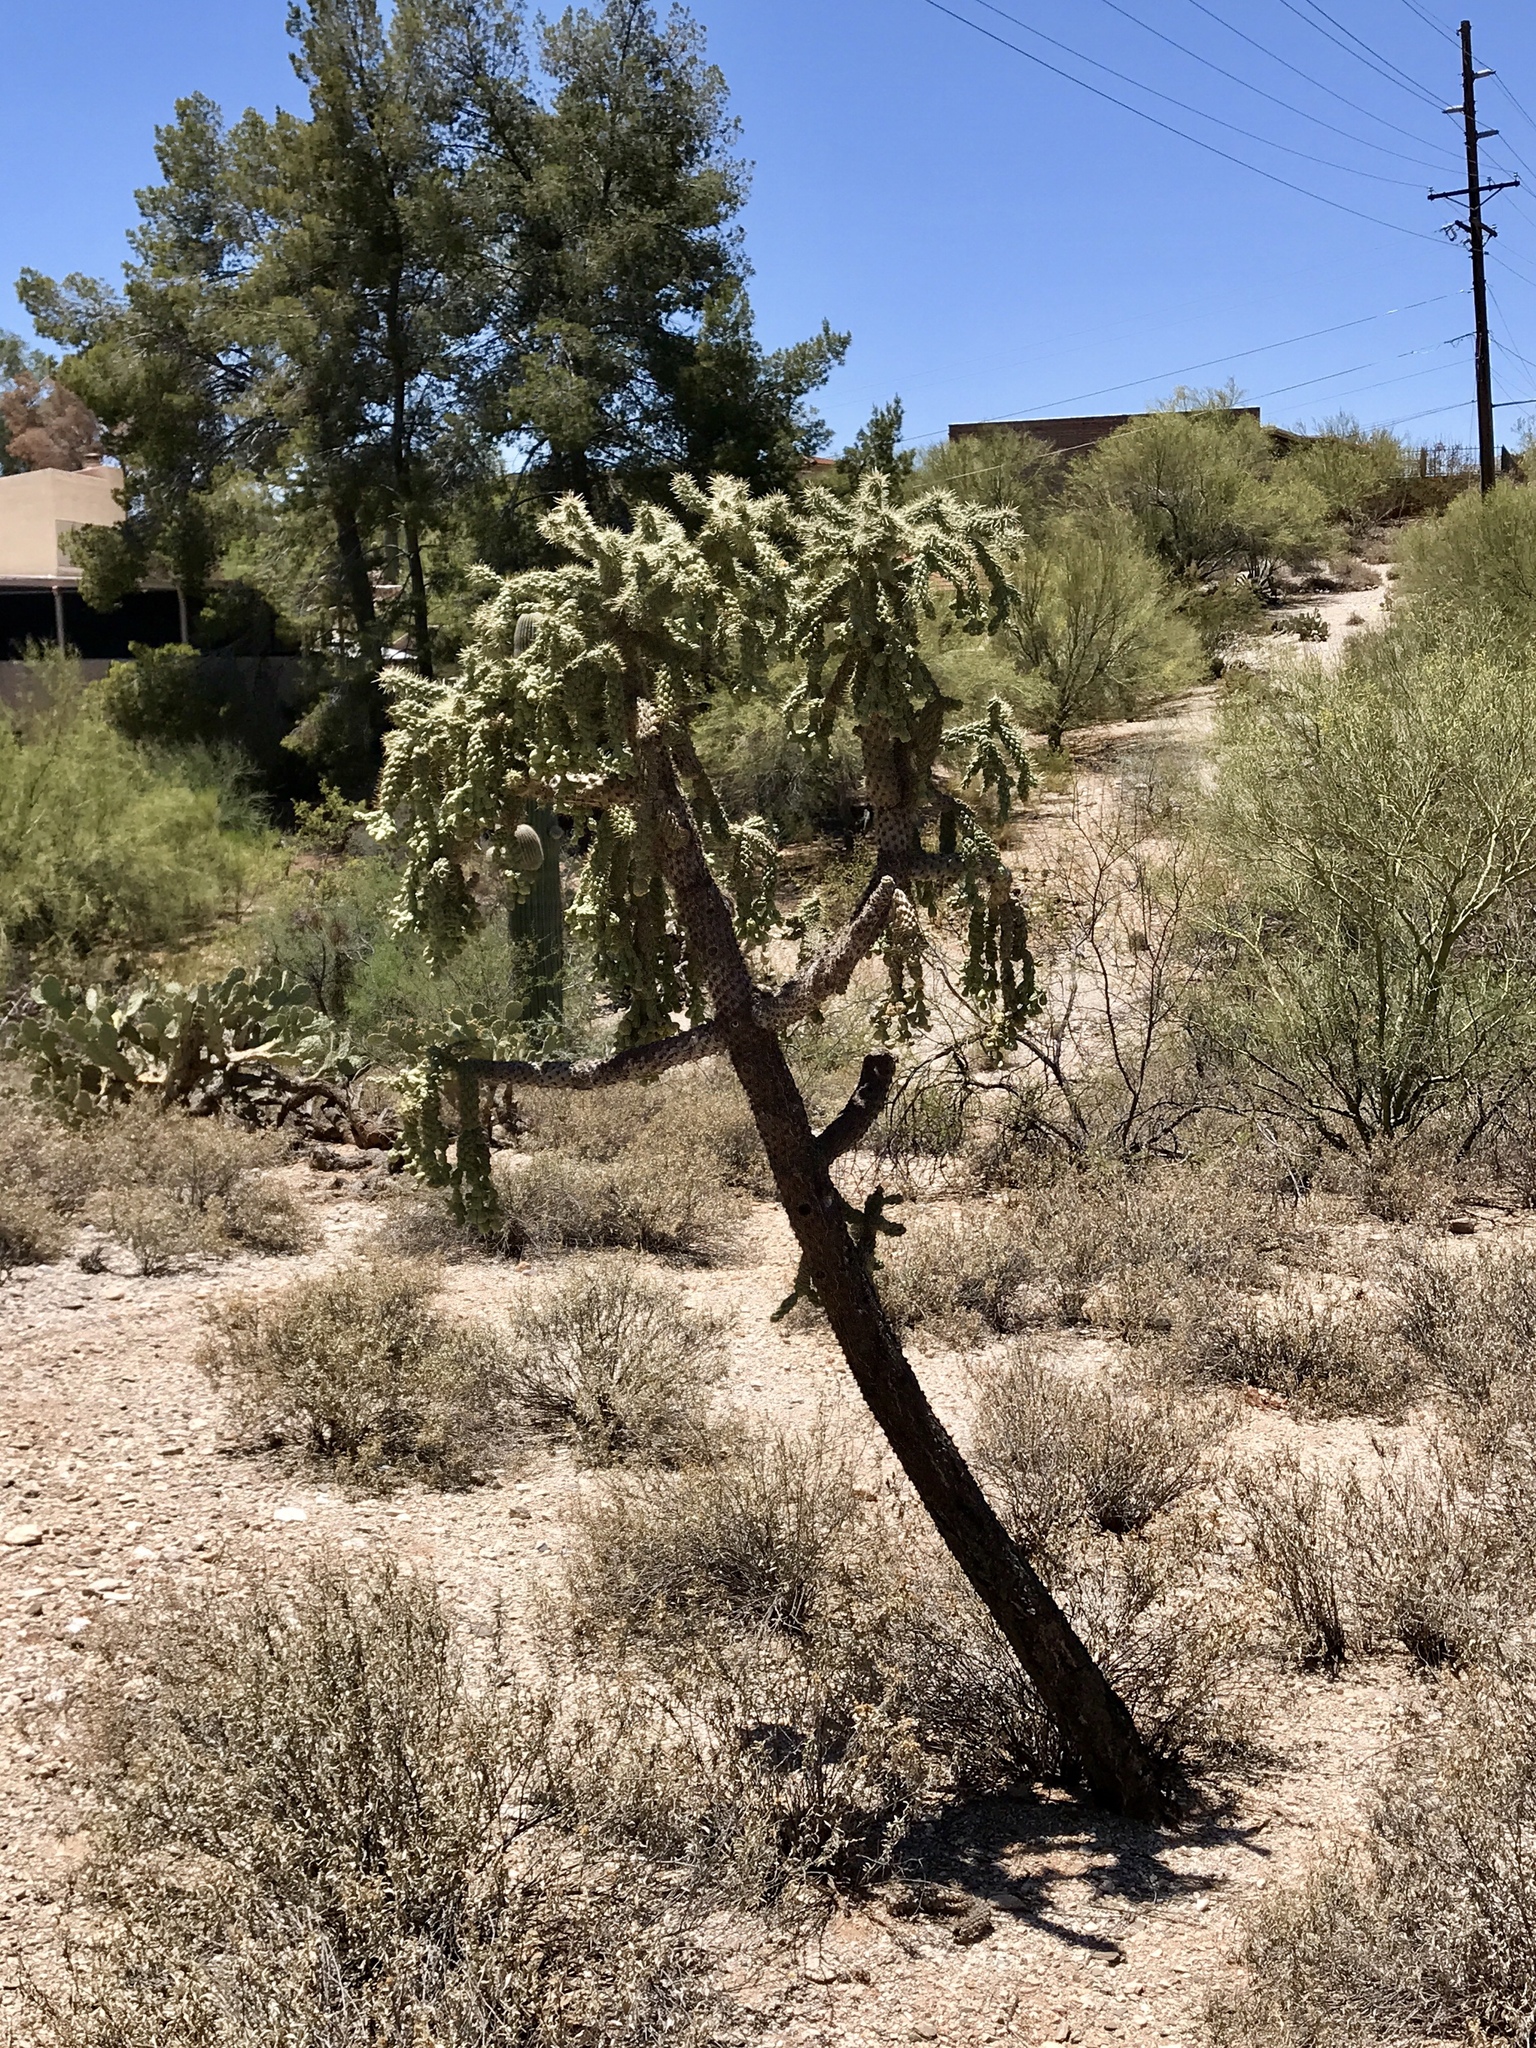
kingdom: Plantae
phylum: Tracheophyta
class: Magnoliopsida
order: Caryophyllales
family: Cactaceae
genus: Cylindropuntia
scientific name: Cylindropuntia fulgida
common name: Jumping cholla
